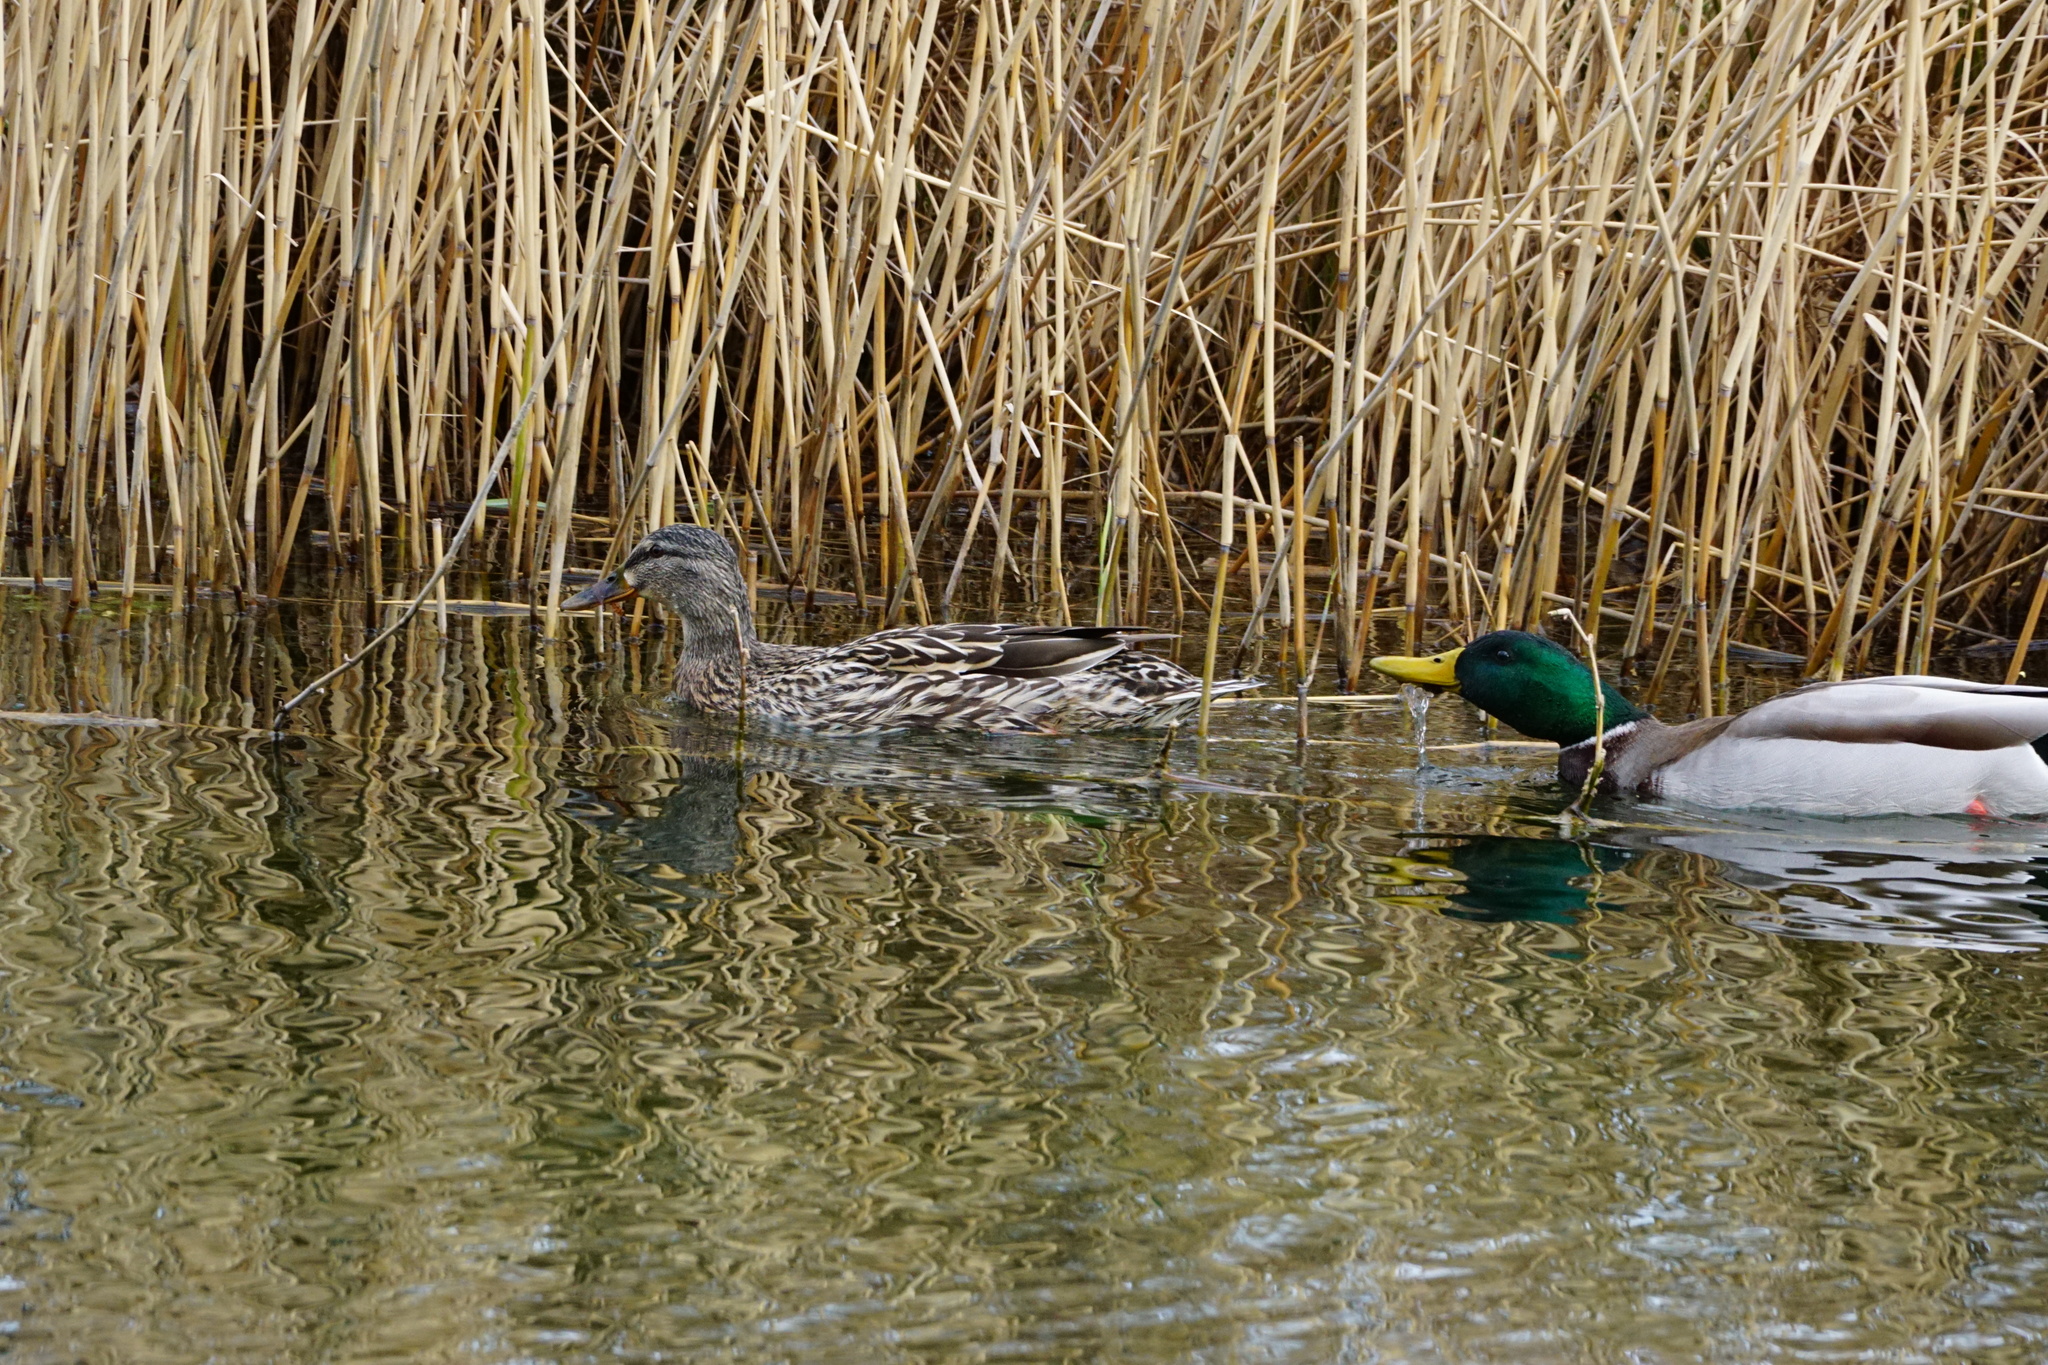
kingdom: Animalia
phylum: Chordata
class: Aves
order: Anseriformes
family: Anatidae
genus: Anas
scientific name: Anas platyrhynchos
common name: Mallard
